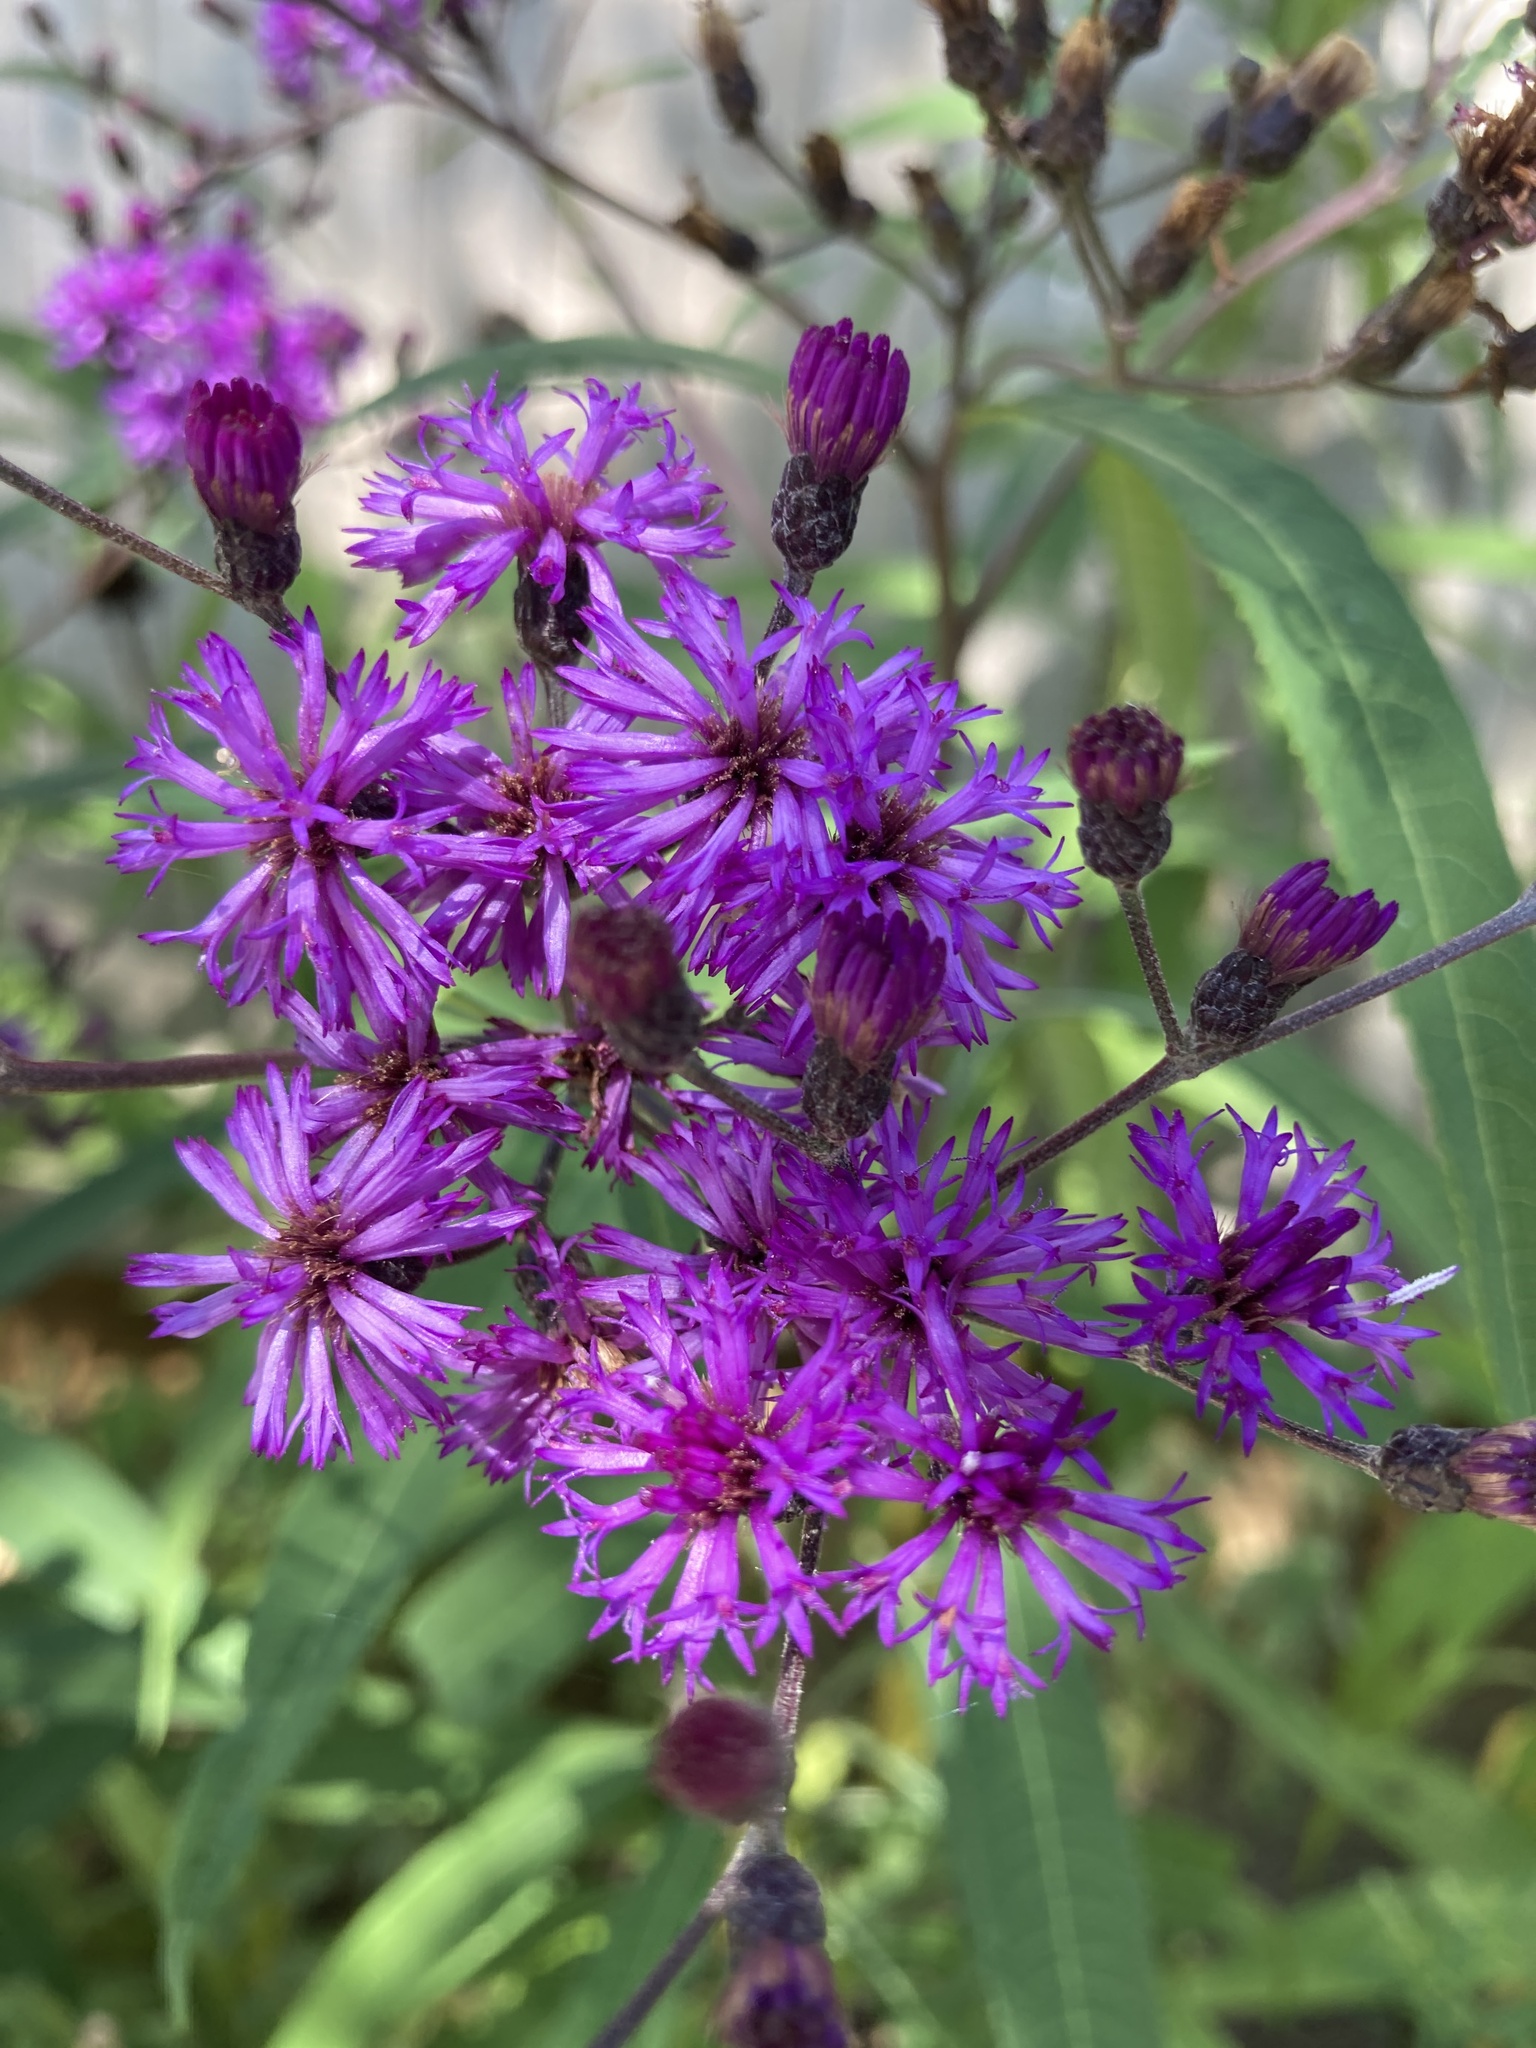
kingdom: Plantae
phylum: Tracheophyta
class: Magnoliopsida
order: Asterales
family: Asteraceae
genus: Vernonia
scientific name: Vernonia gigantea
